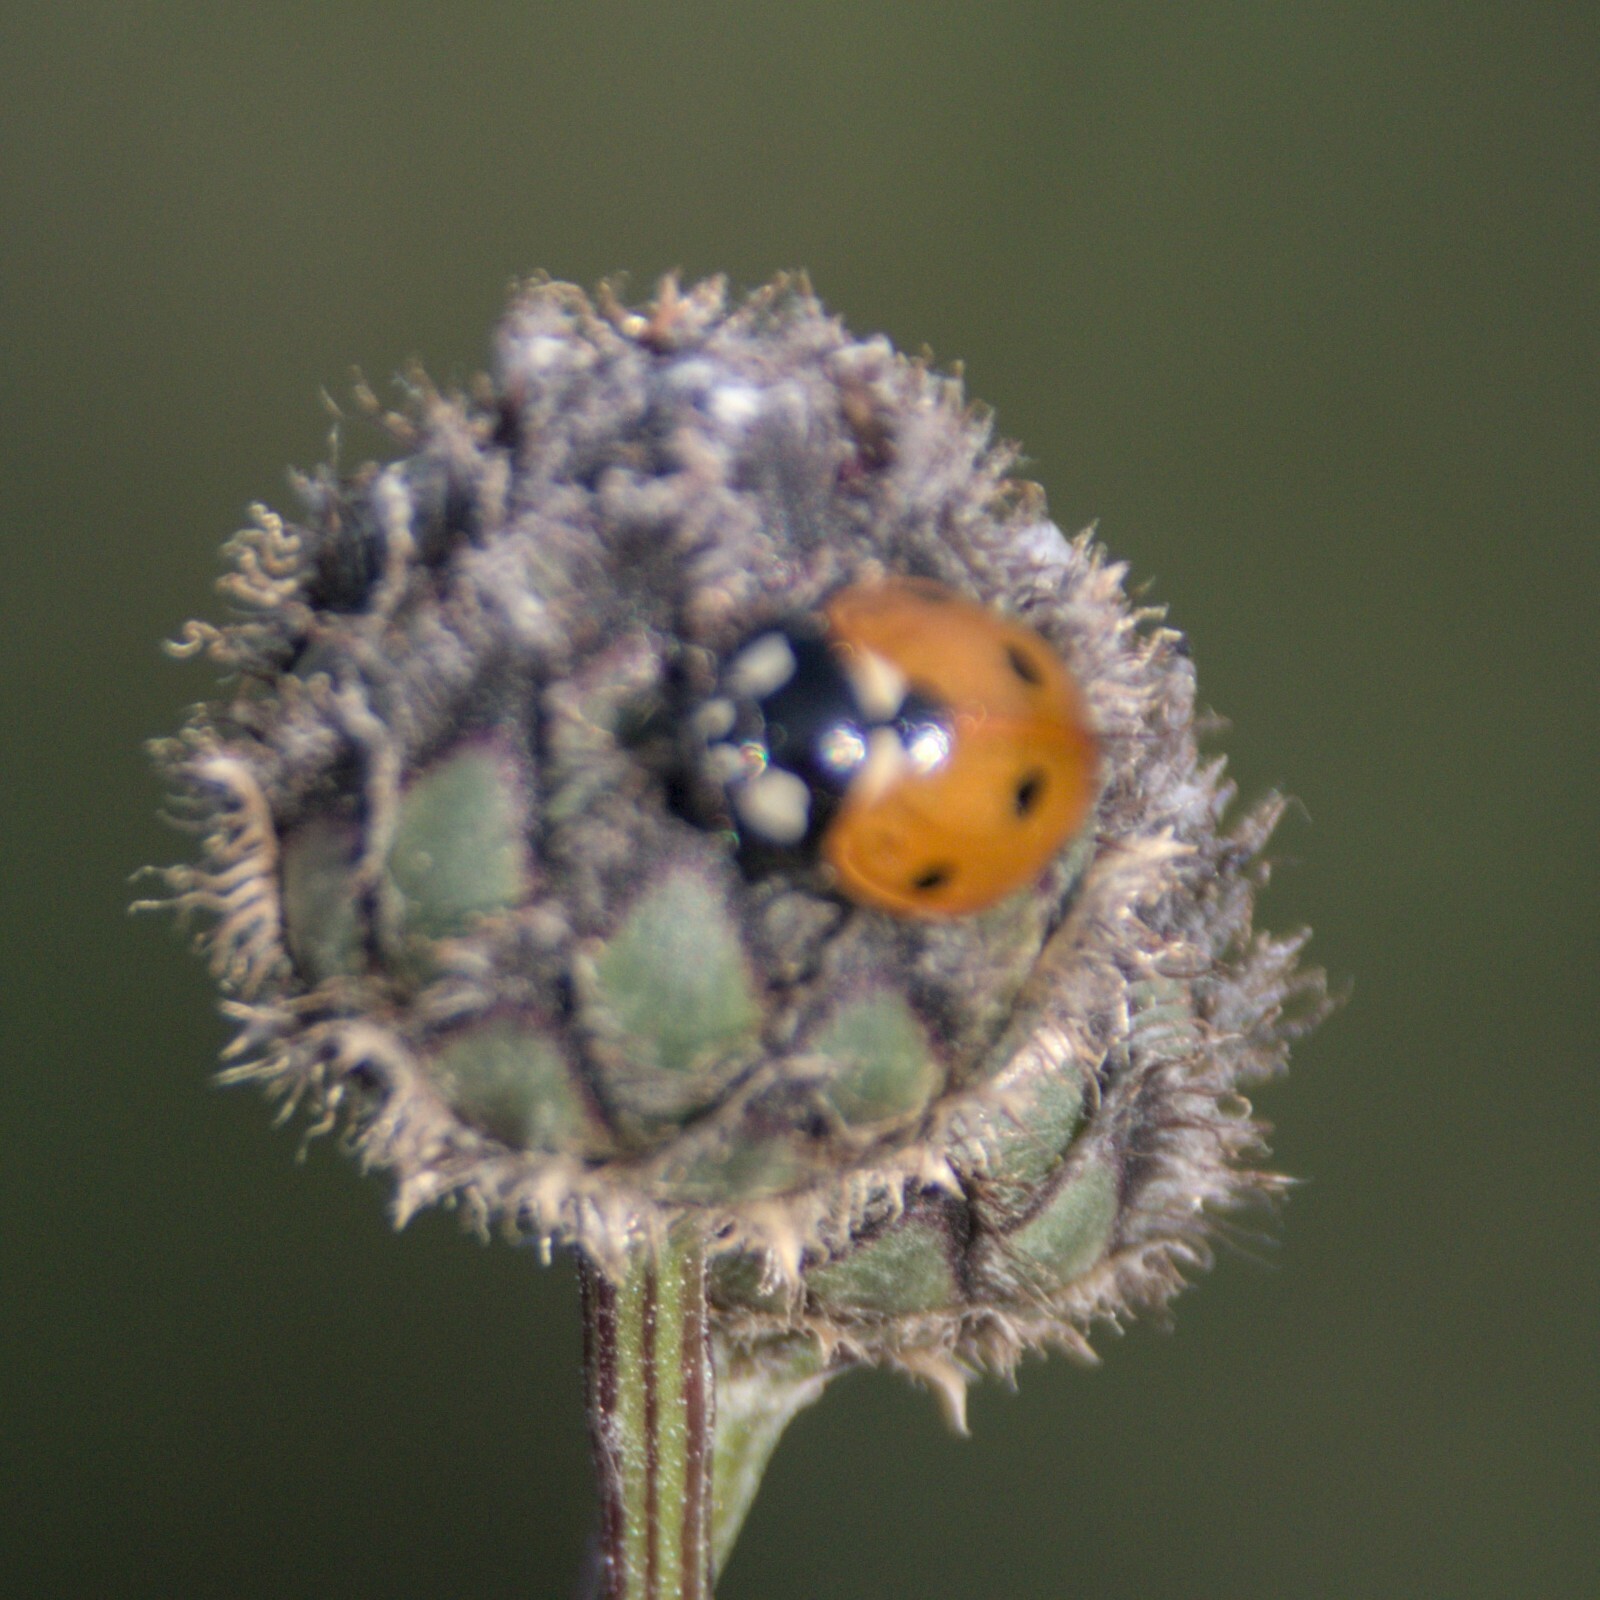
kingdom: Animalia
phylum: Arthropoda
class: Insecta
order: Coleoptera
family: Coccinellidae
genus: Coccinella
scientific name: Coccinella septempunctata
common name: Sevenspotted lady beetle
